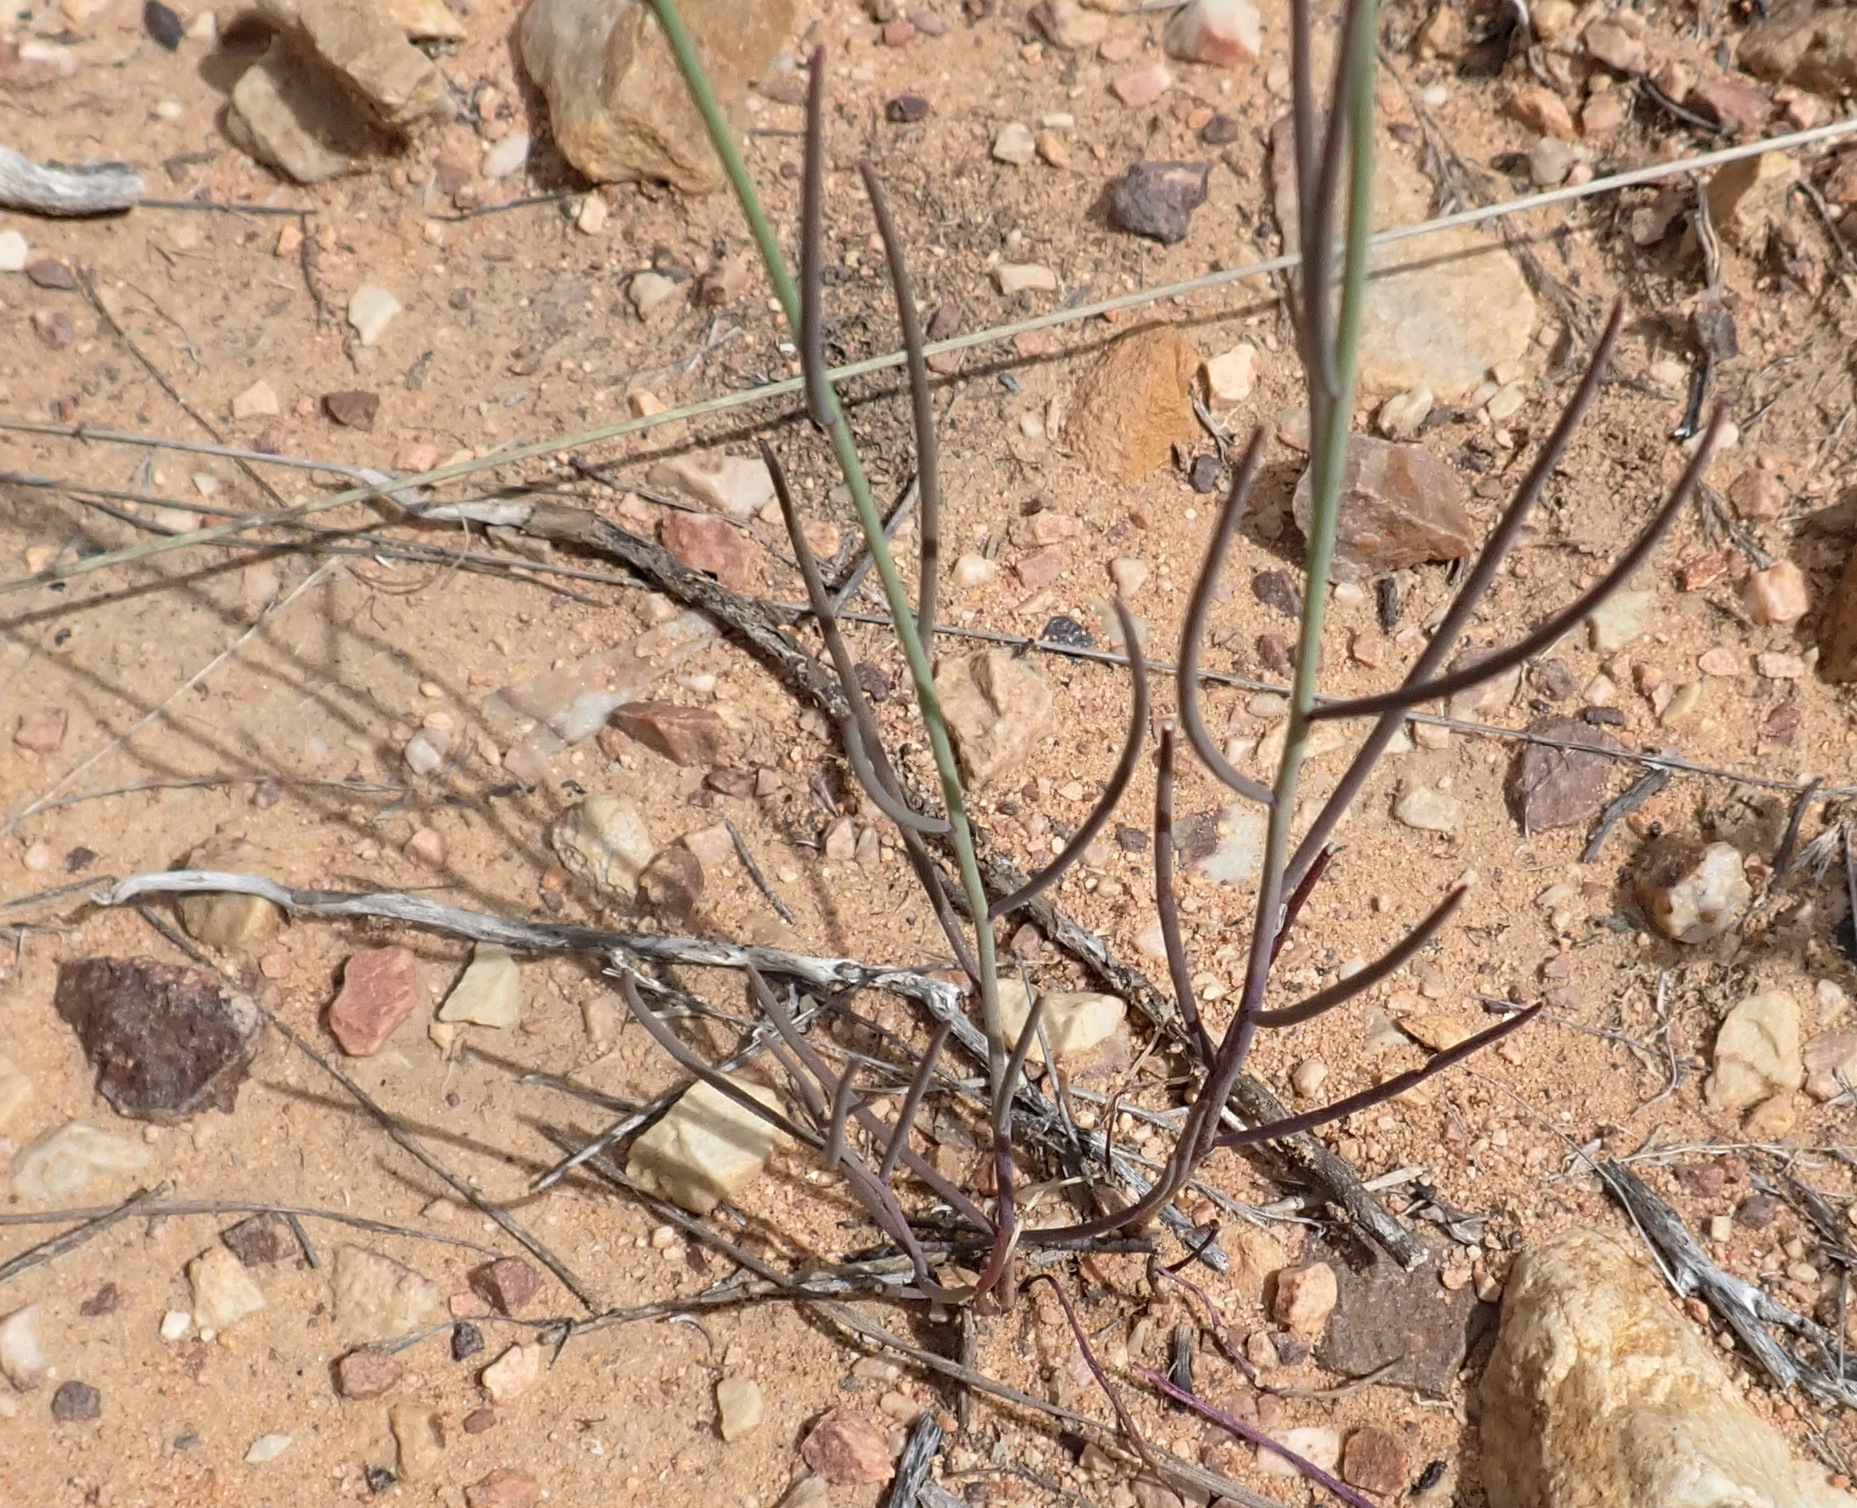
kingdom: Plantae
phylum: Tracheophyta
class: Magnoliopsida
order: Brassicales
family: Brassicaceae
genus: Heliophila
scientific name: Heliophila cornuta
